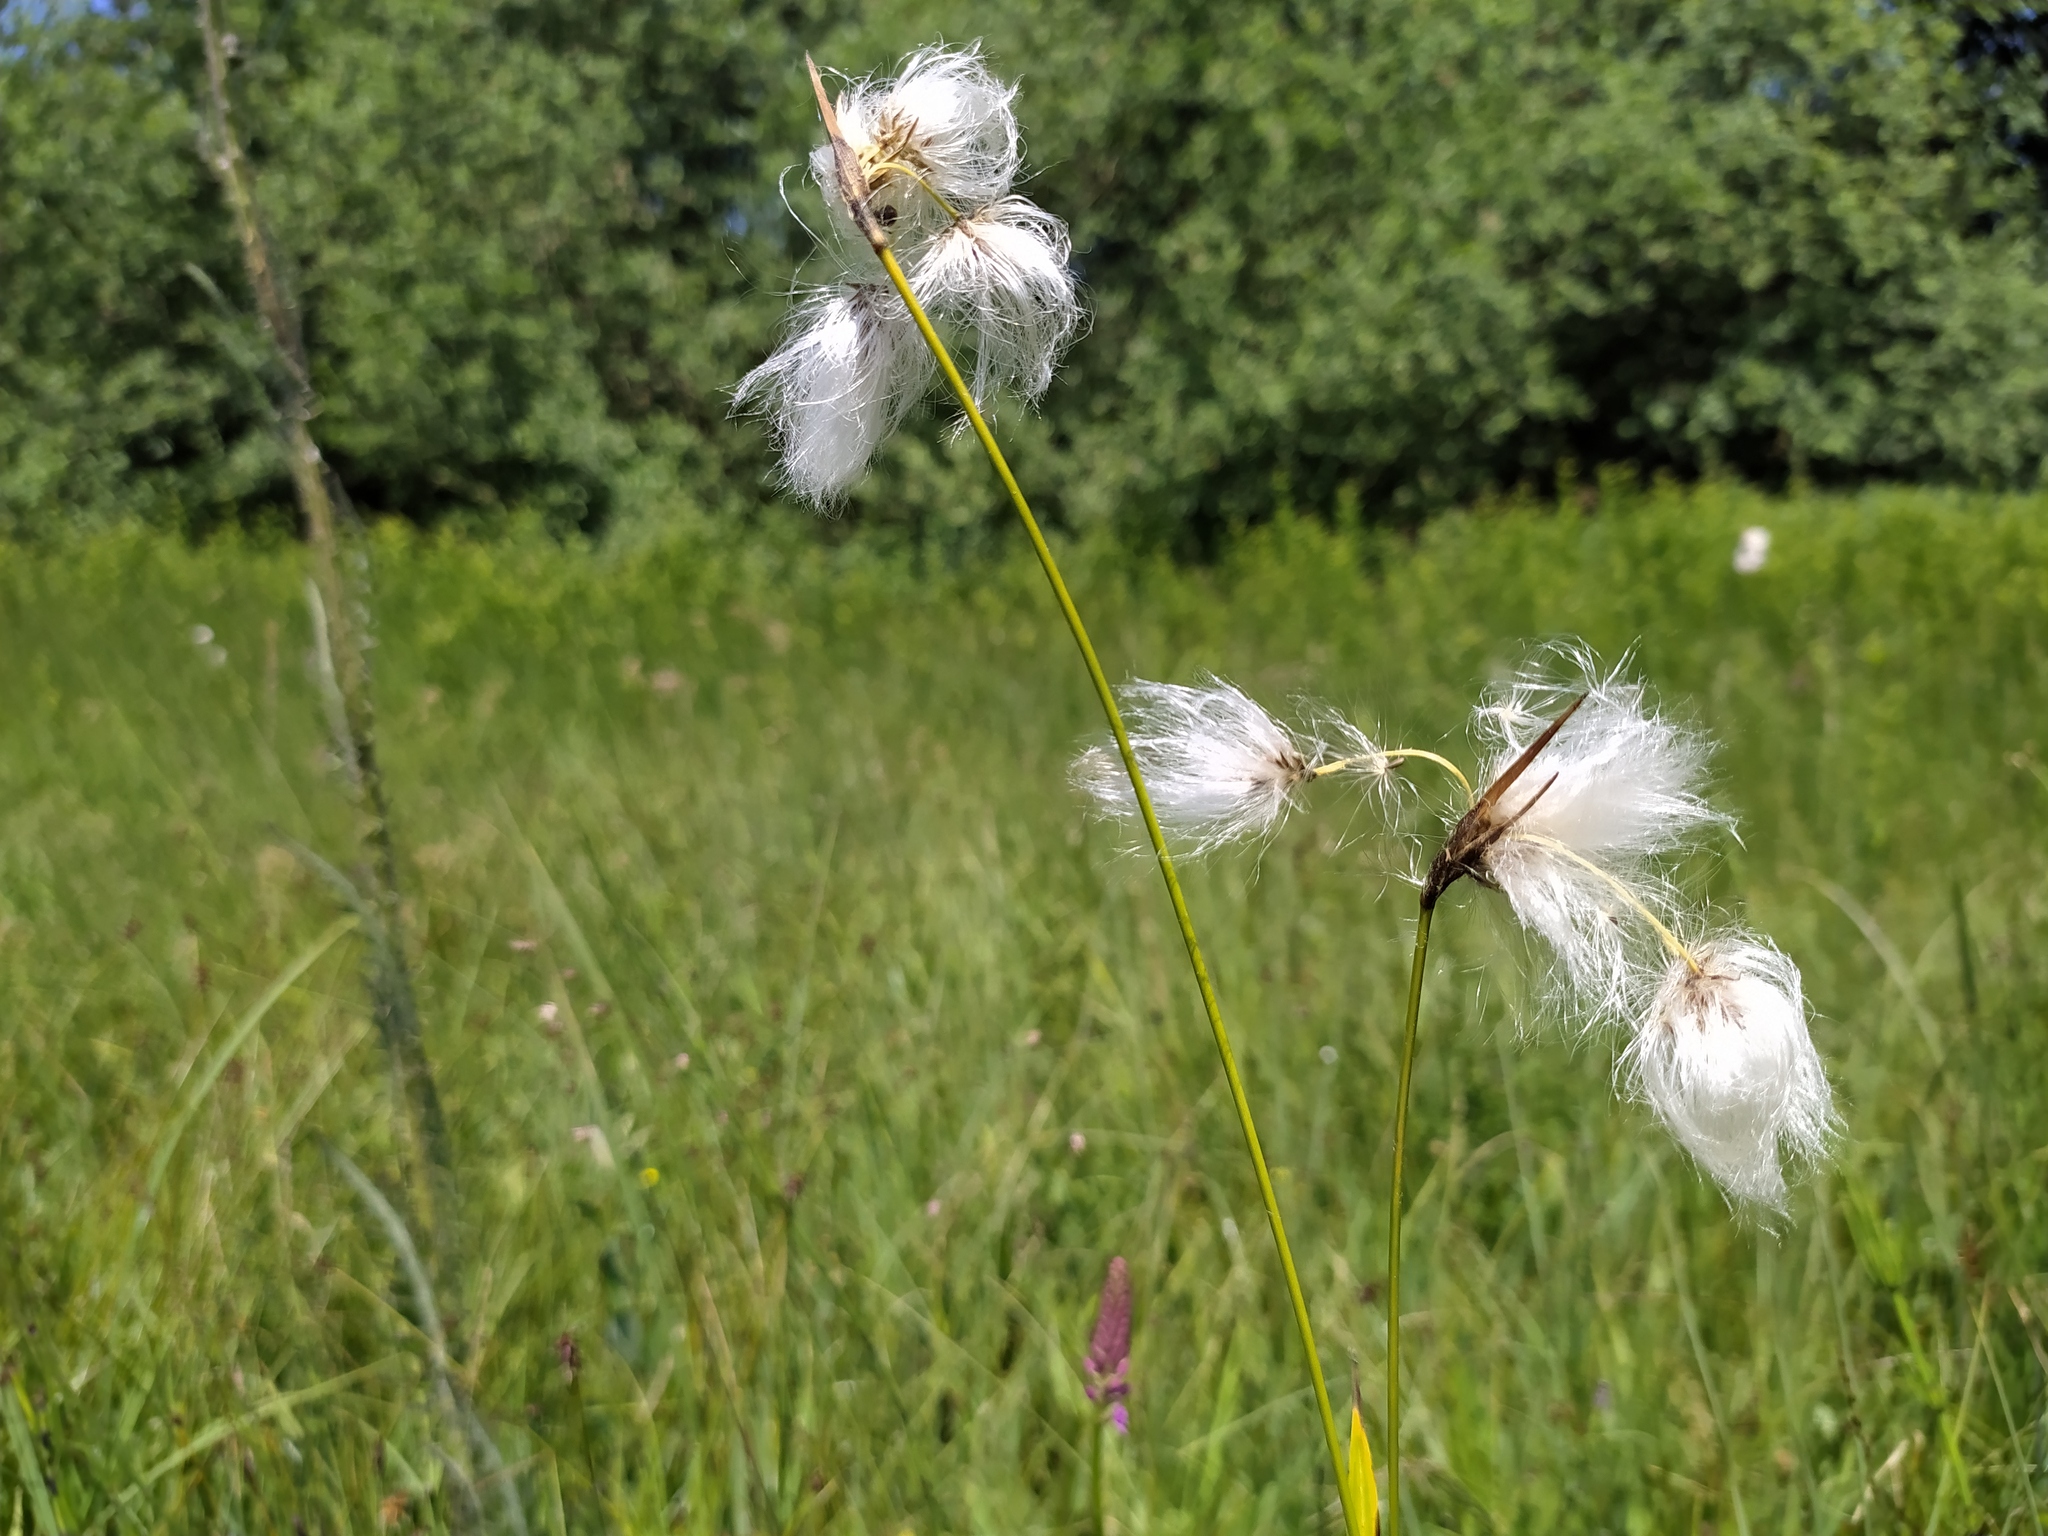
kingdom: Plantae
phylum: Tracheophyta
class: Liliopsida
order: Poales
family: Cyperaceae
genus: Eriophorum
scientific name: Eriophorum latifolium
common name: Broad-leaved cottongrass
